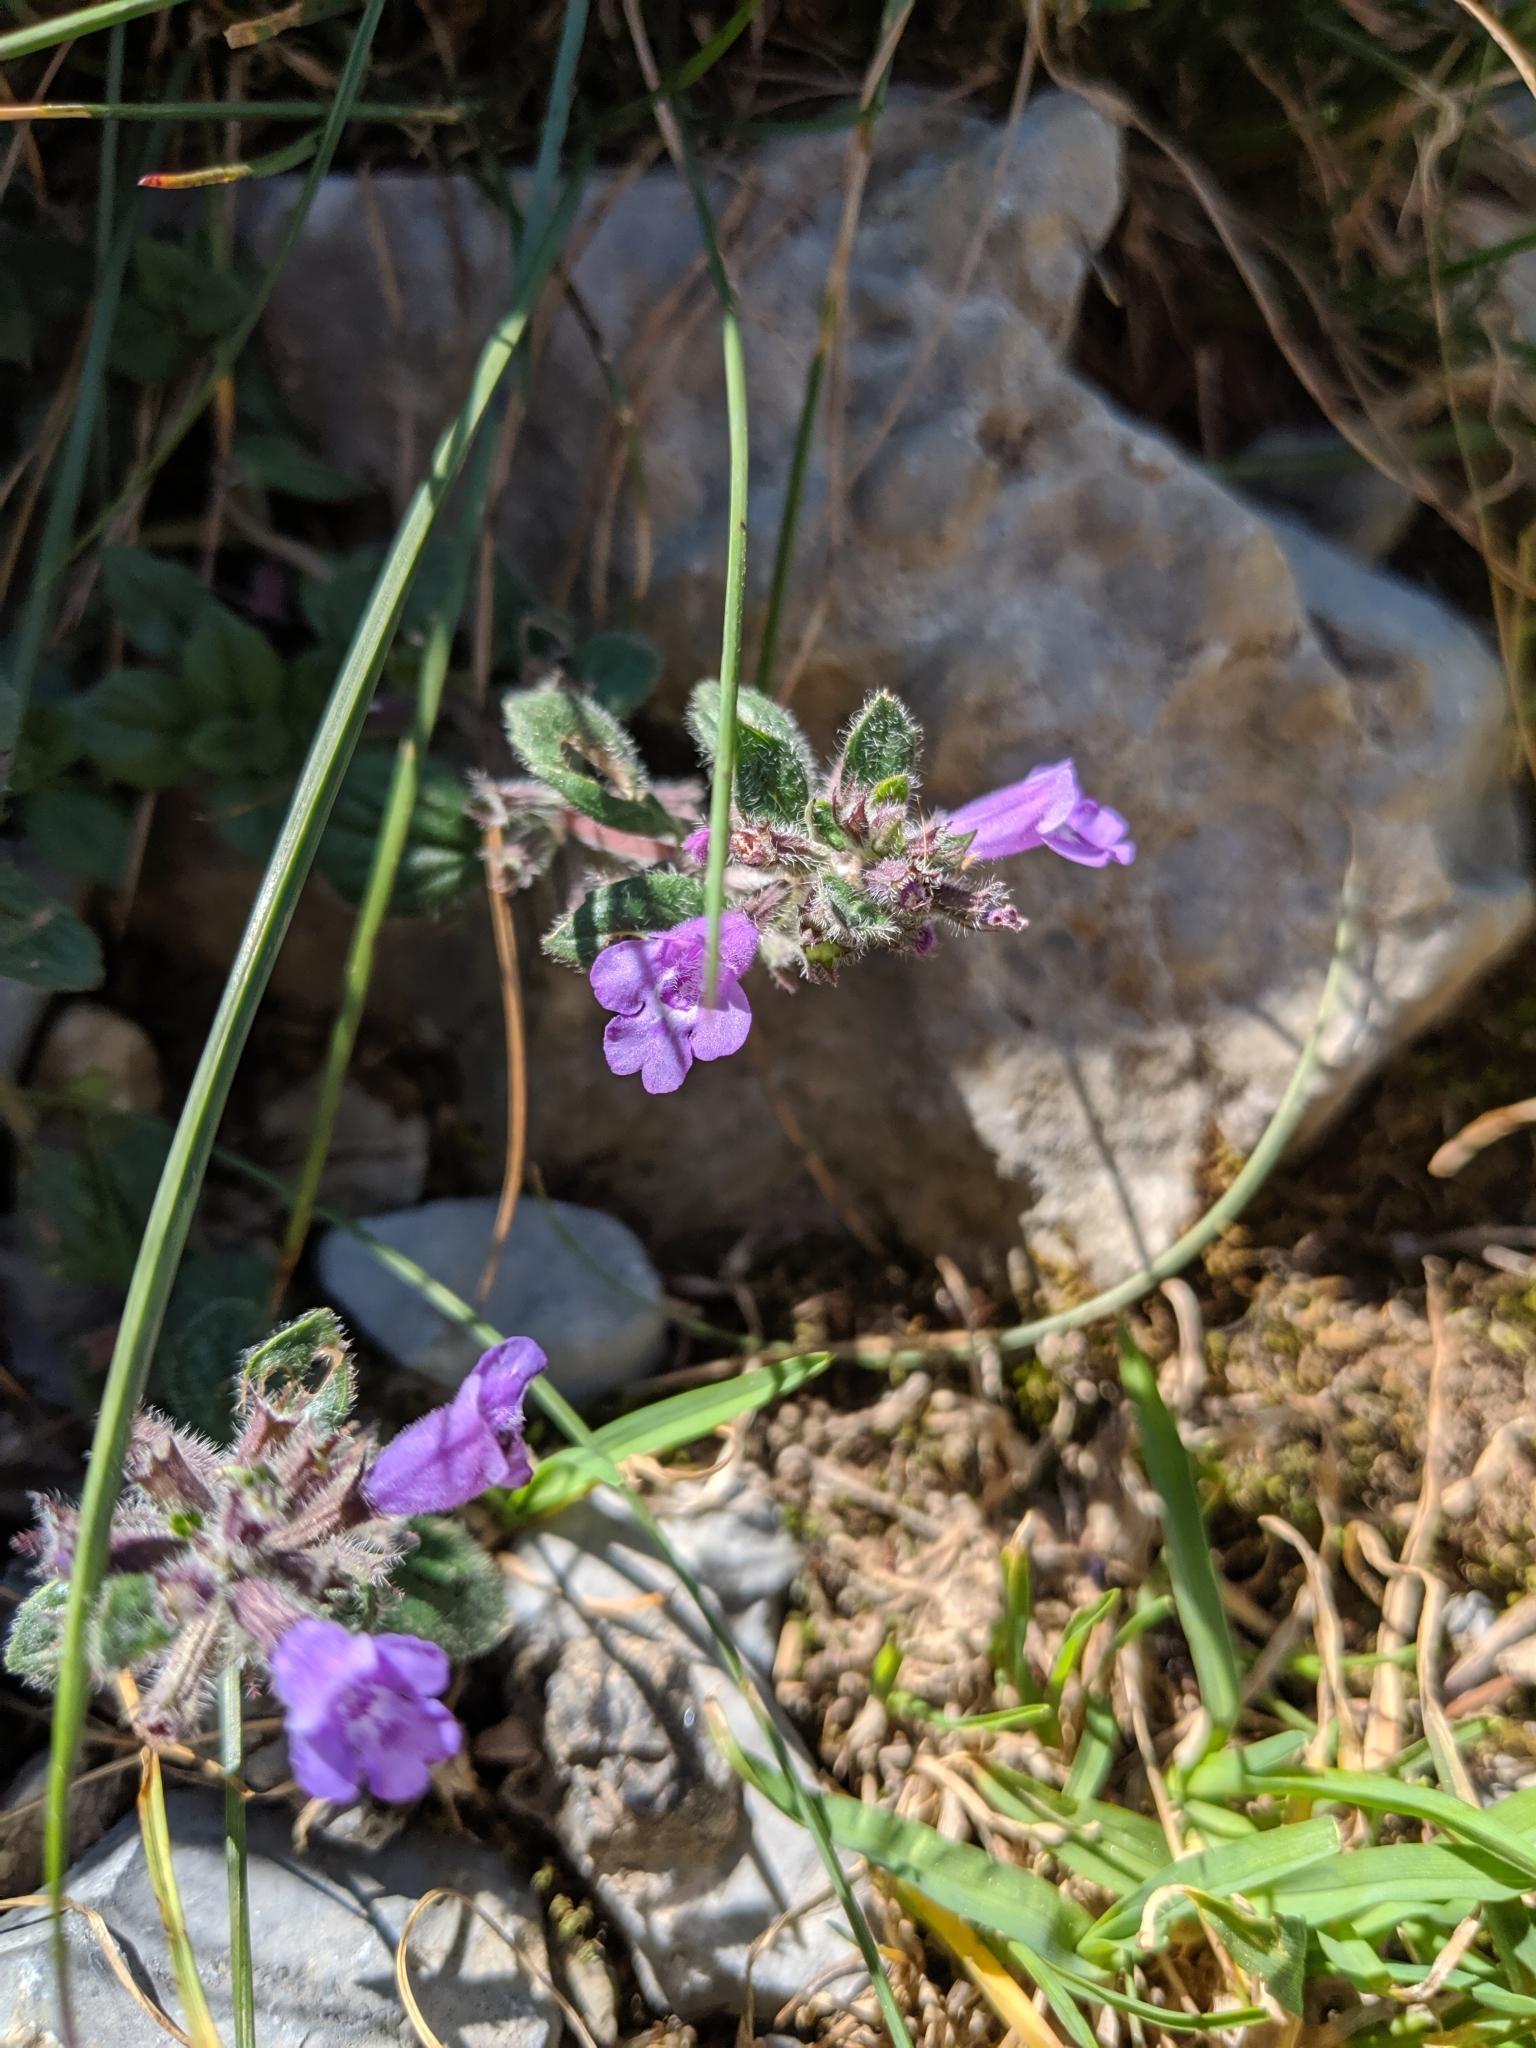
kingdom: Plantae
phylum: Tracheophyta
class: Magnoliopsida
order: Lamiales
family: Lamiaceae
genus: Clinopodium
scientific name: Clinopodium alpinum
